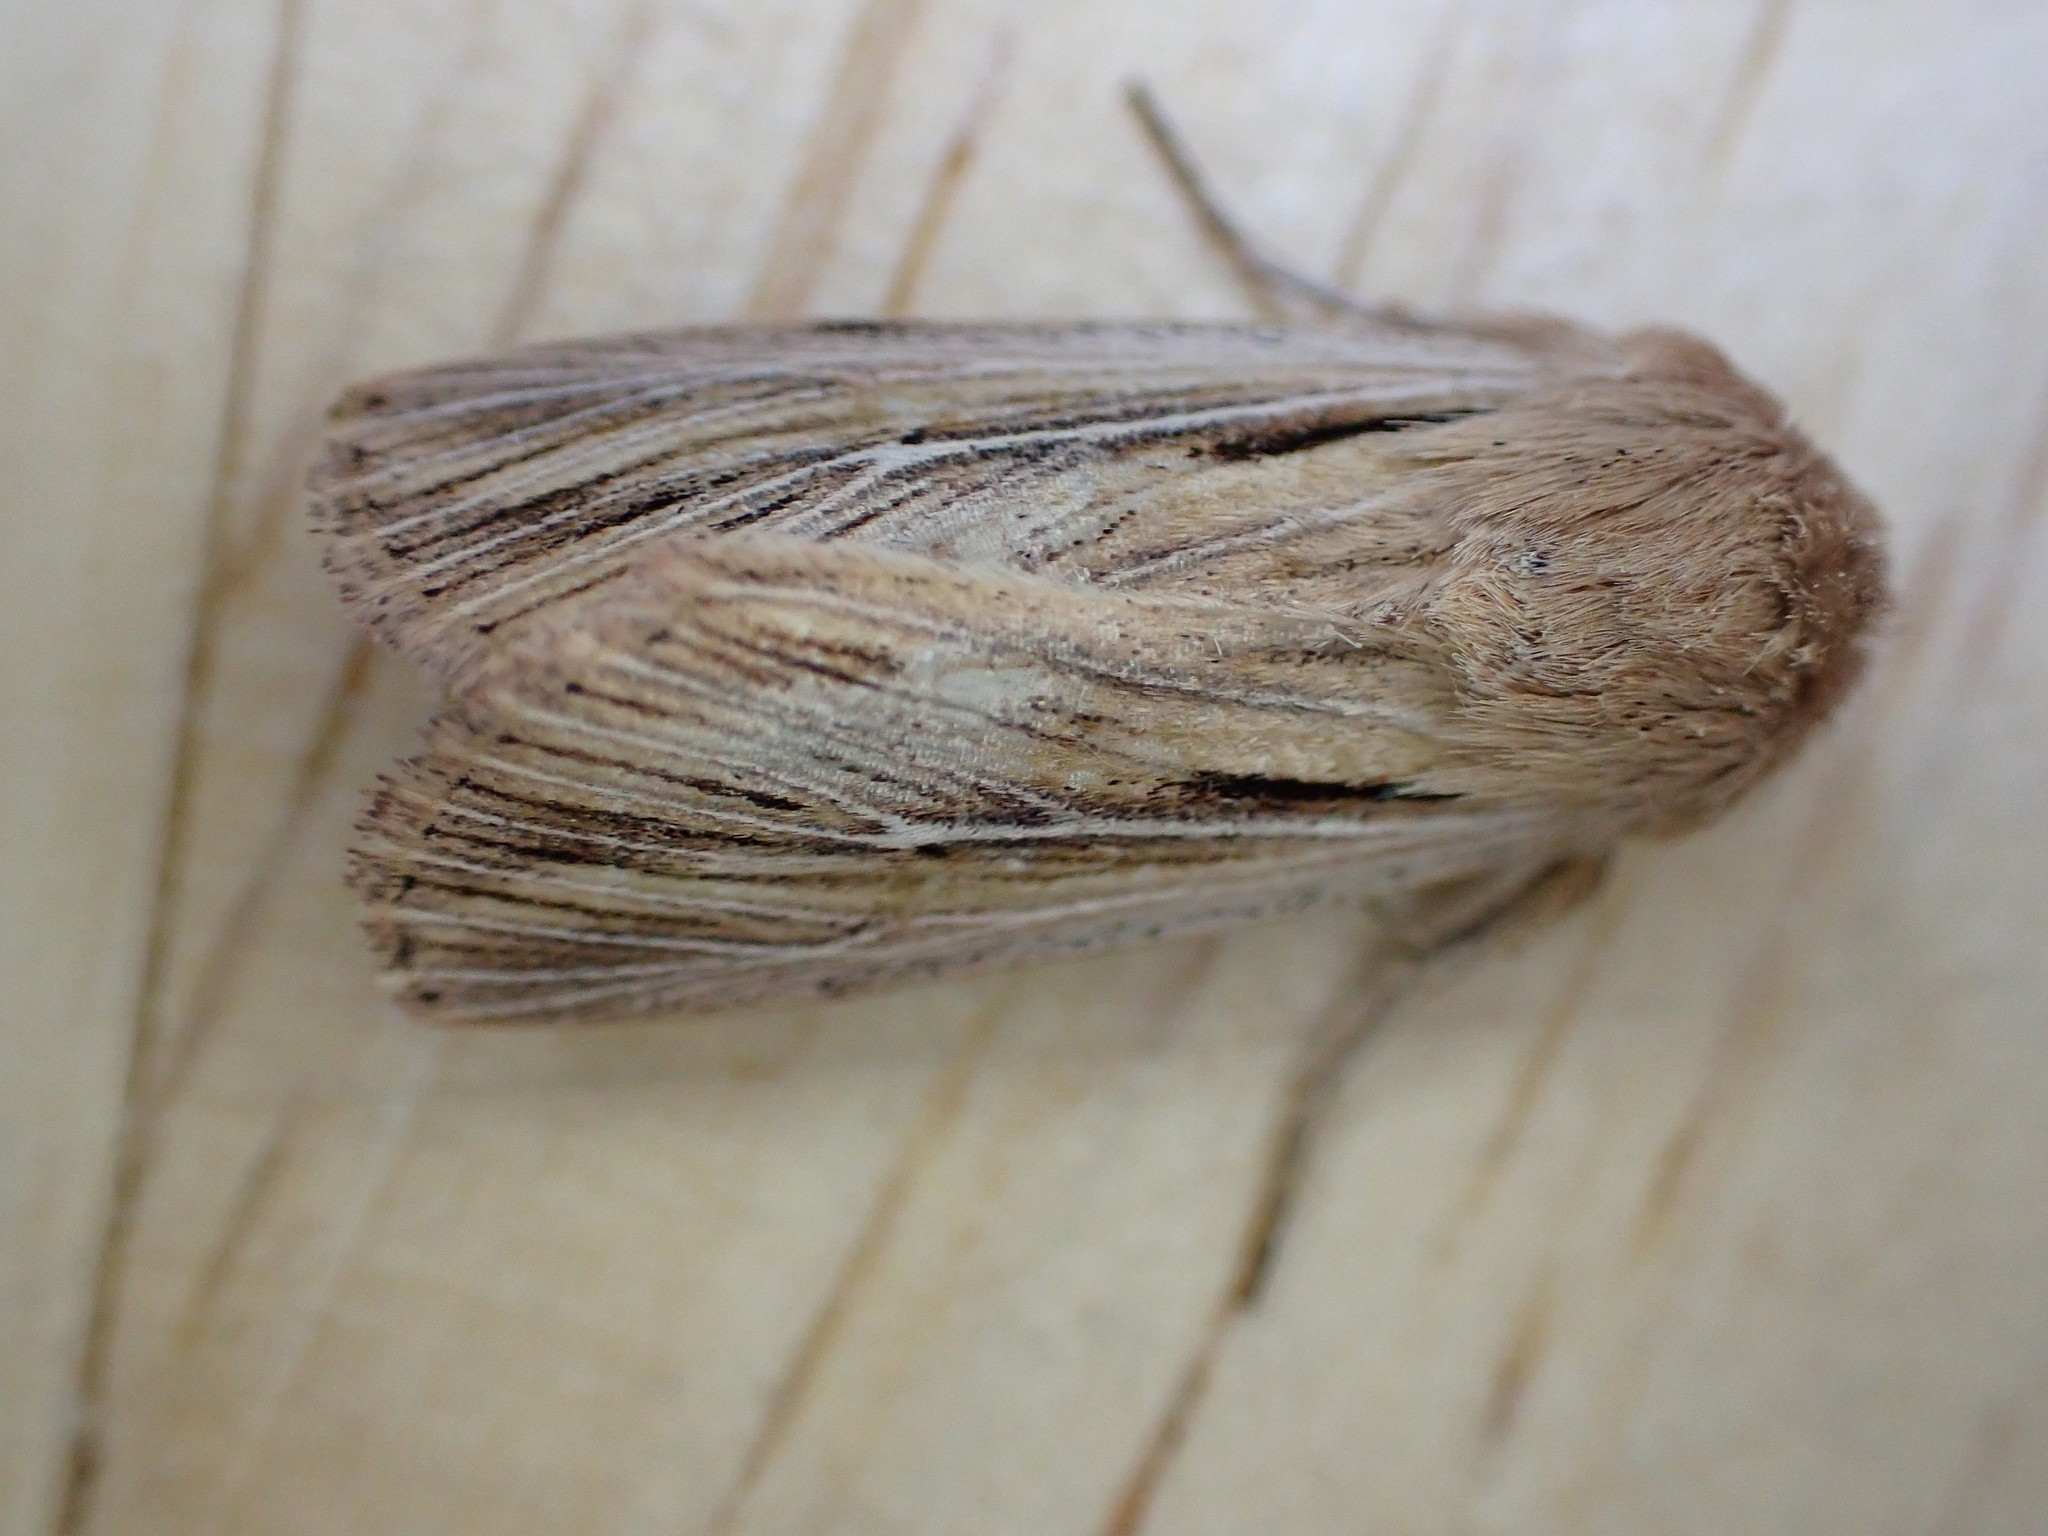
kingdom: Animalia
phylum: Arthropoda
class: Insecta
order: Lepidoptera
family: Noctuidae
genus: Leucania
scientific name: Leucania comma
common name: Shoulder-striped wainscot
